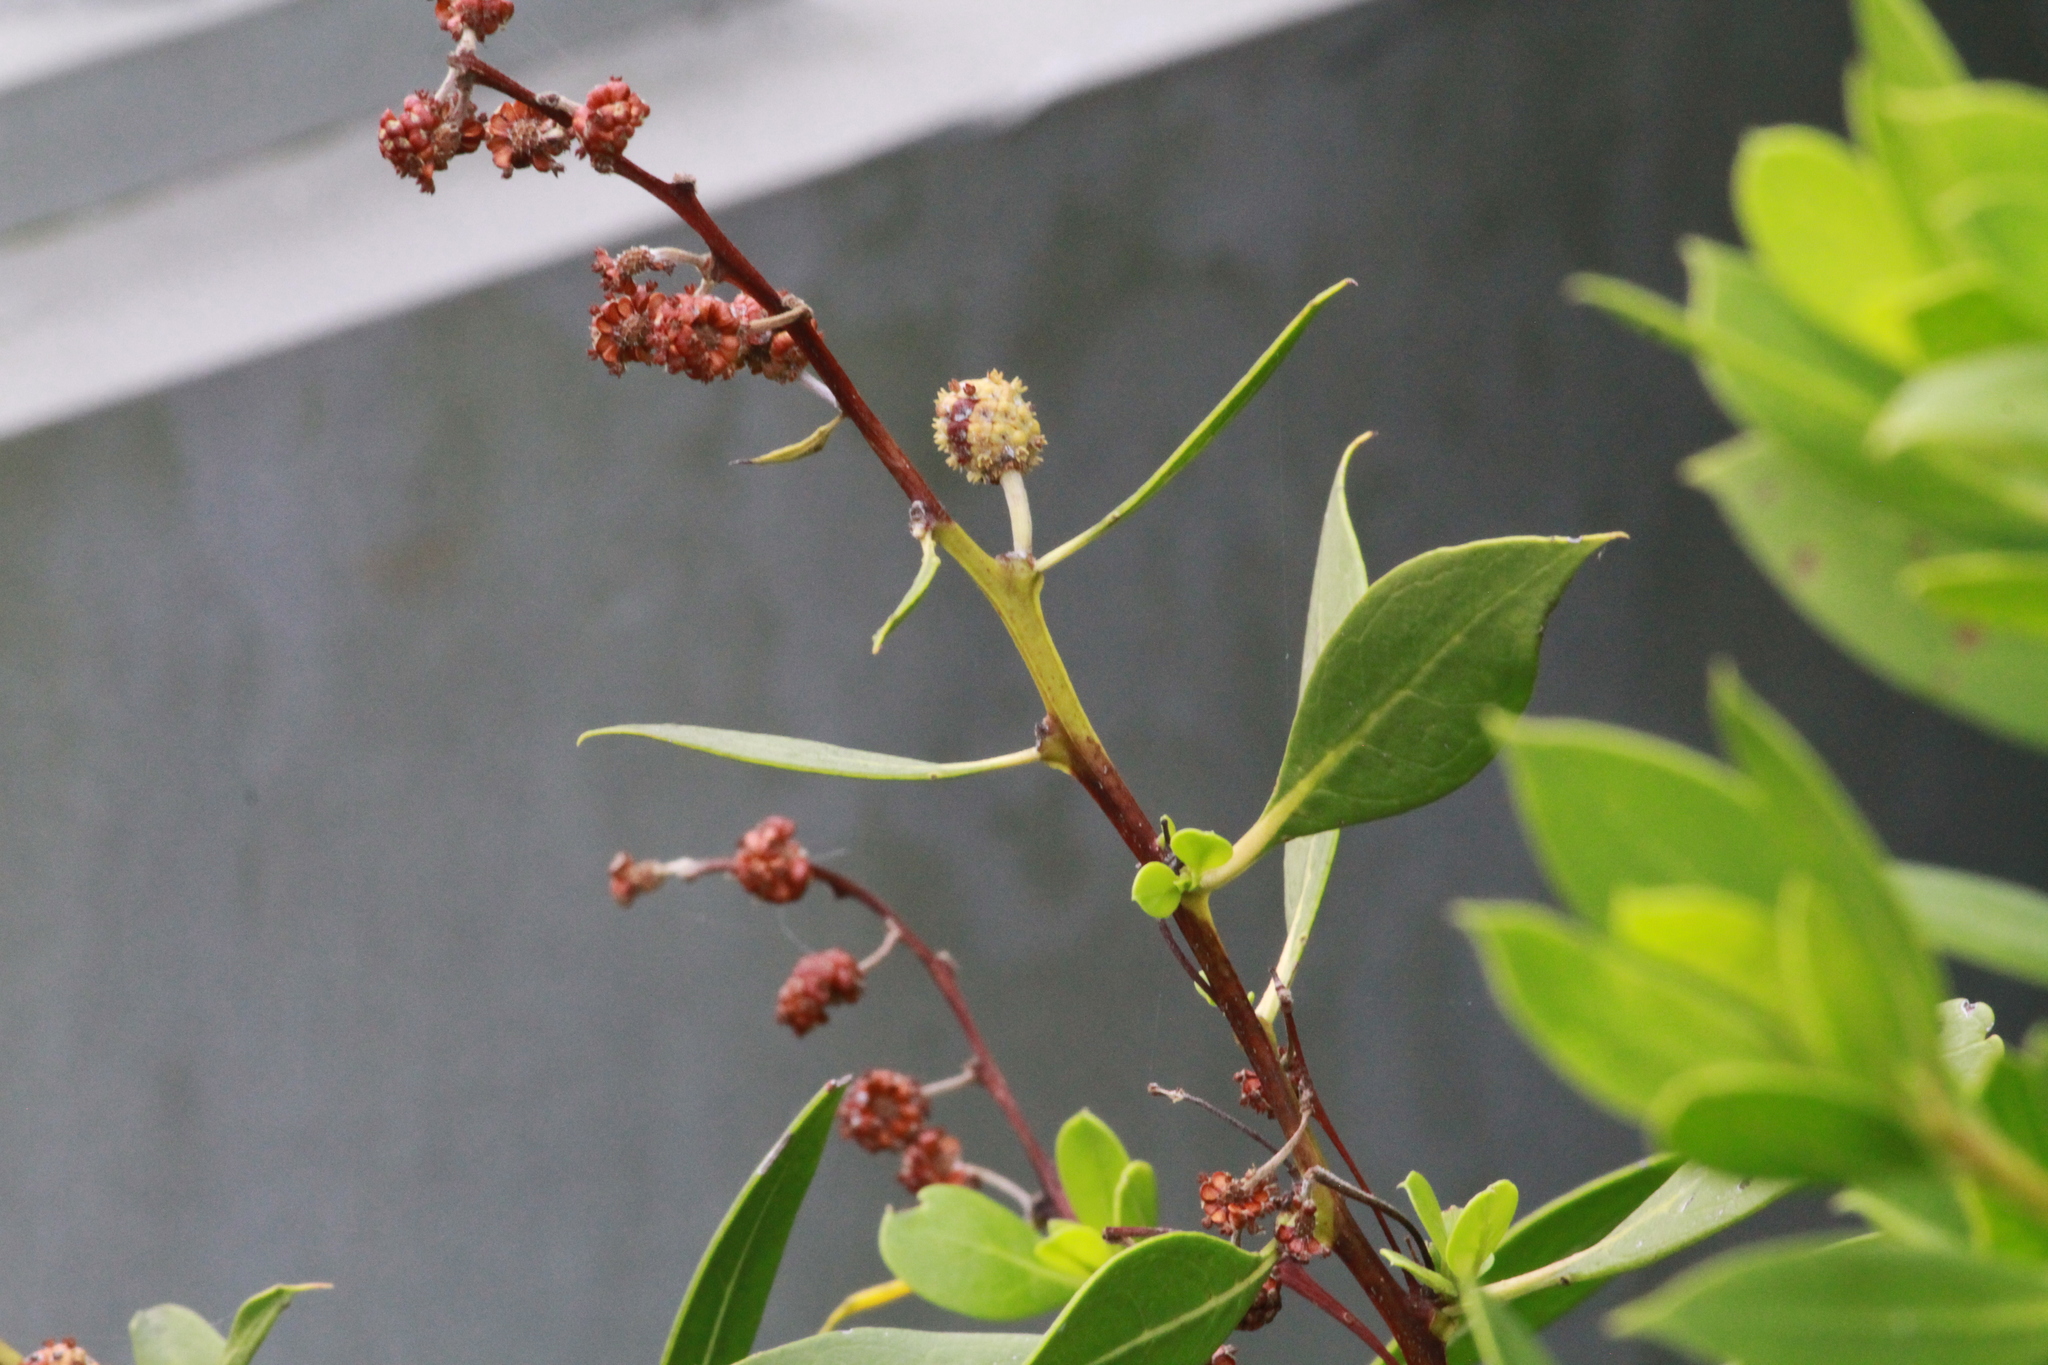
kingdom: Plantae
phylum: Tracheophyta
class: Magnoliopsida
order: Myrtales
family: Combretaceae
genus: Conocarpus
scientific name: Conocarpus erectus
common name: Button mangrove
